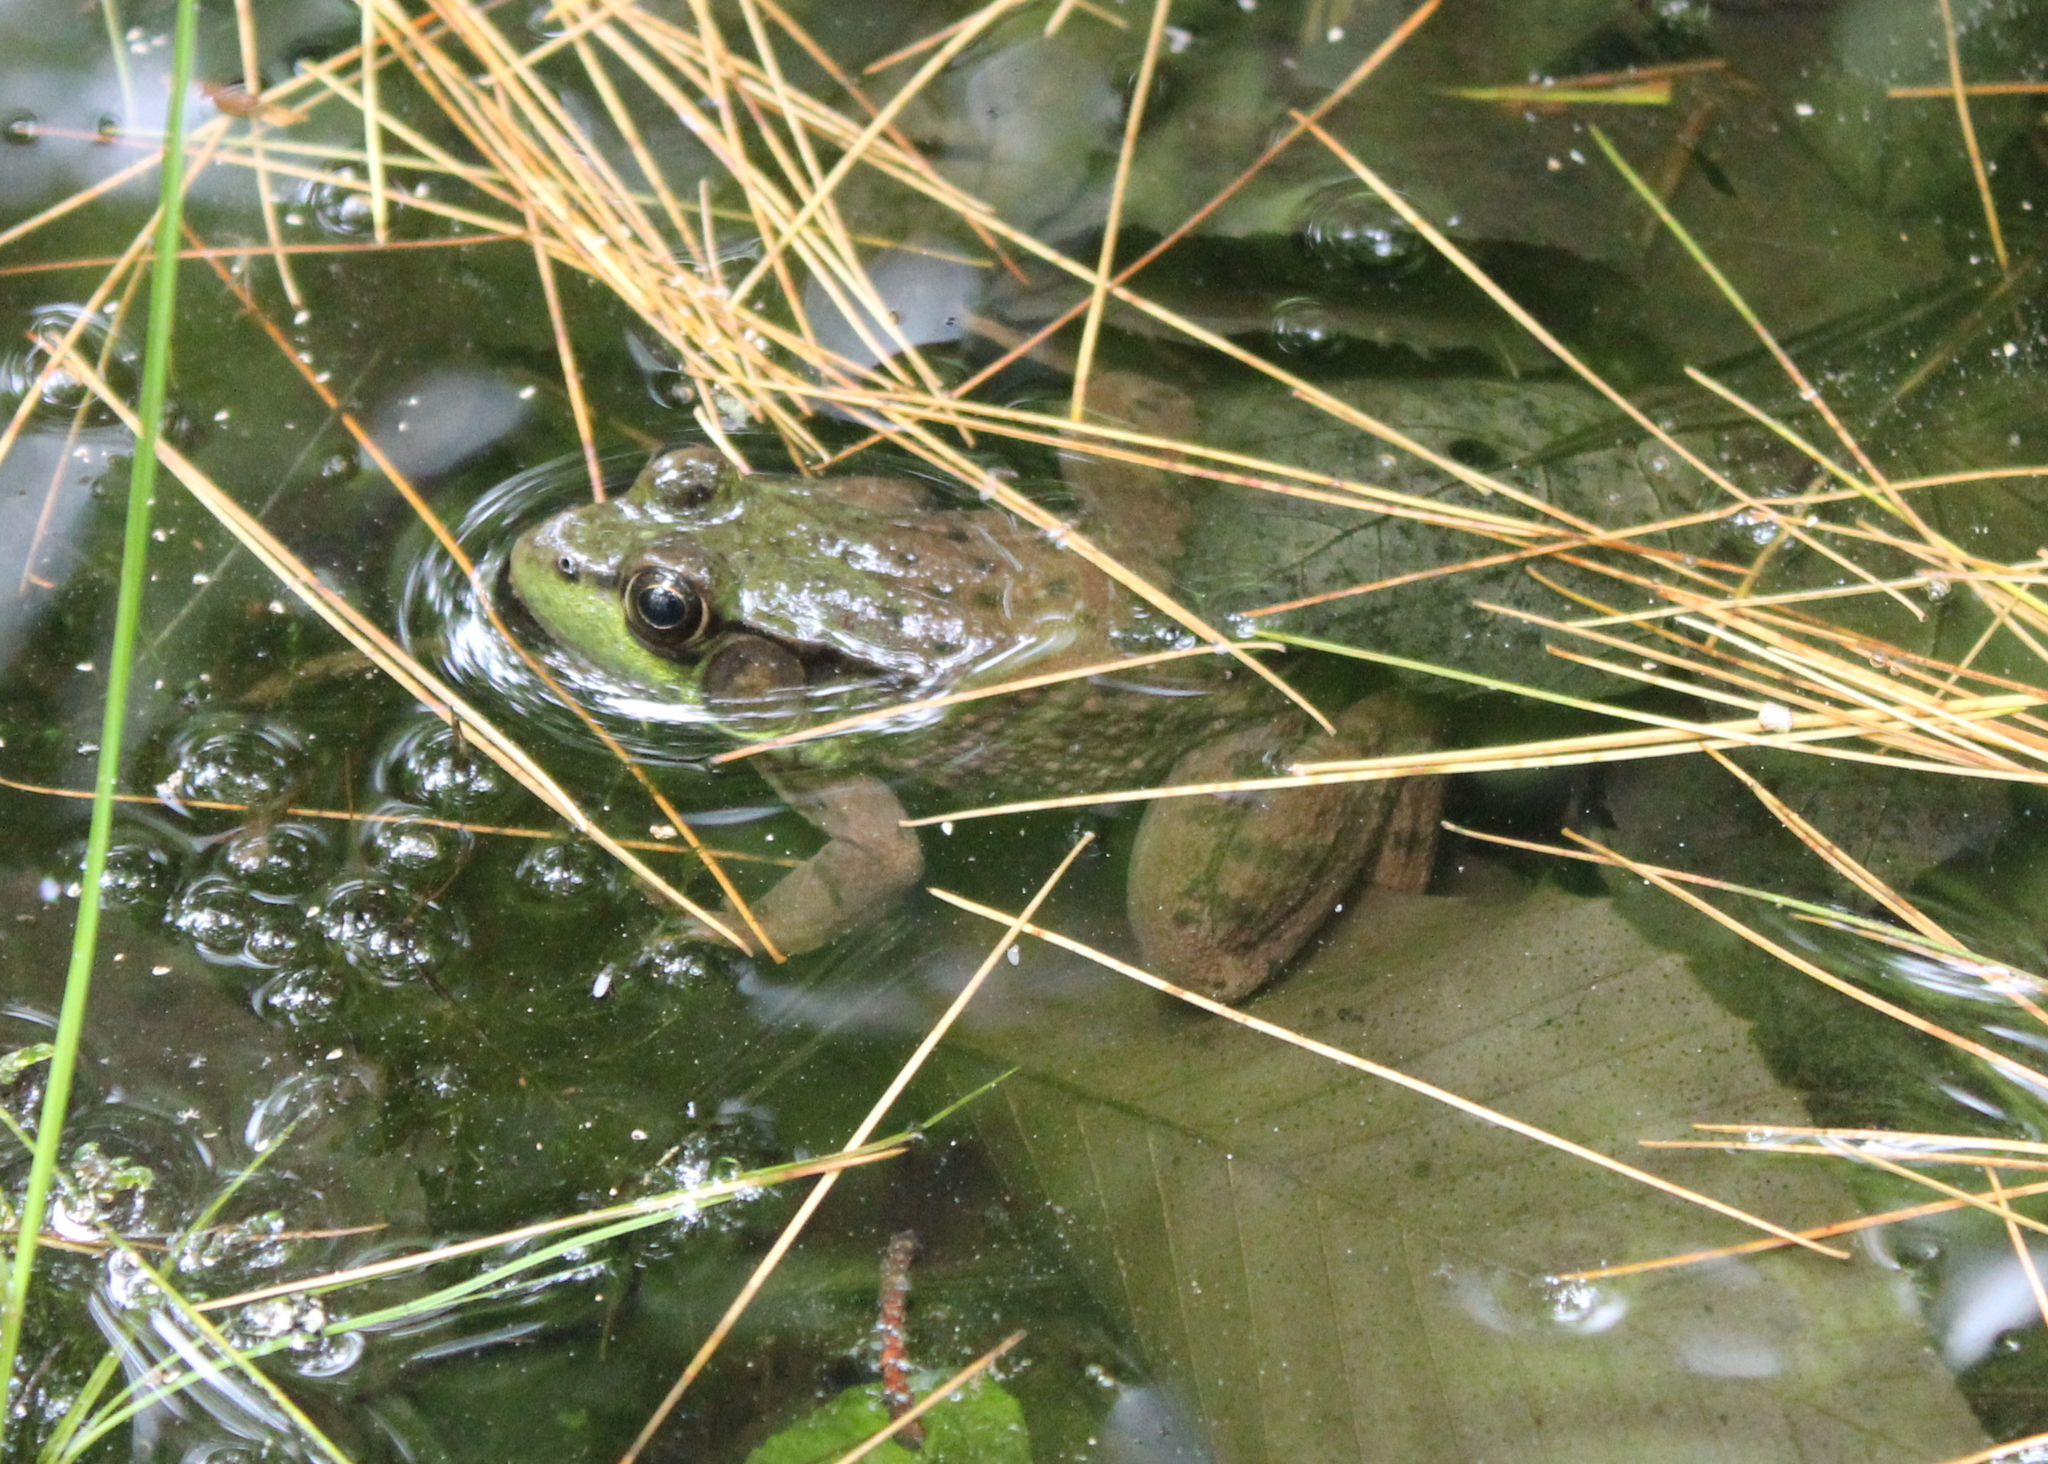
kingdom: Animalia
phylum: Chordata
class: Amphibia
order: Anura
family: Ranidae
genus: Lithobates
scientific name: Lithobates clamitans
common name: Green frog
